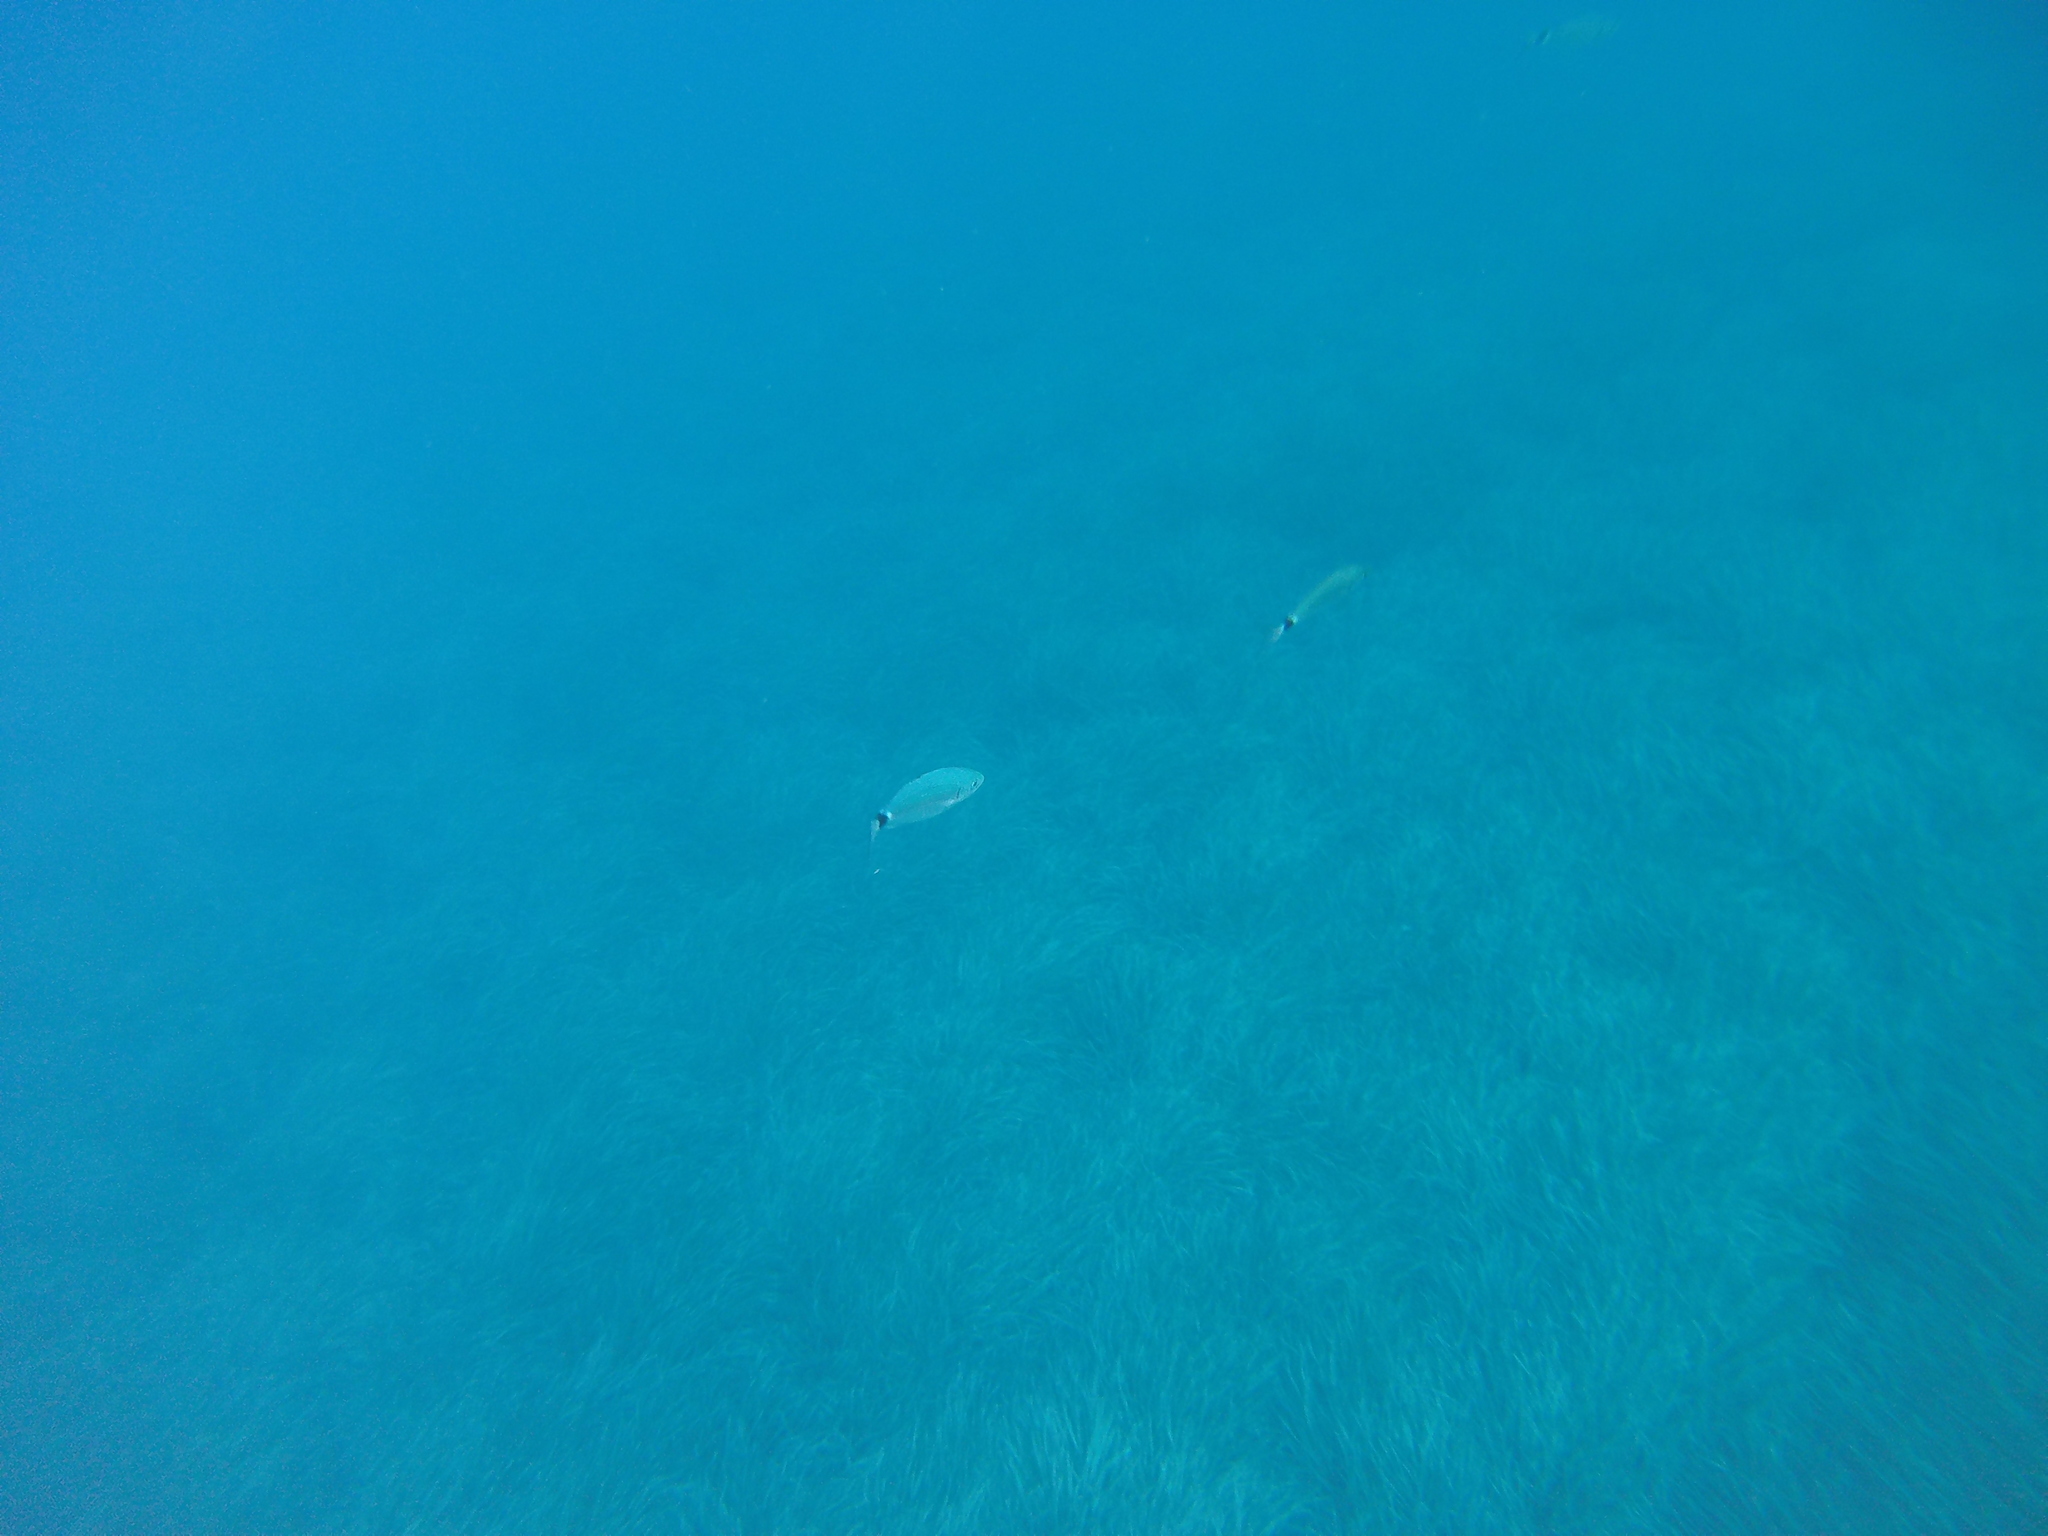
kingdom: Animalia
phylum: Chordata
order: Perciformes
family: Sparidae
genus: Oblada
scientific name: Oblada melanura
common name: Saddled seabream
